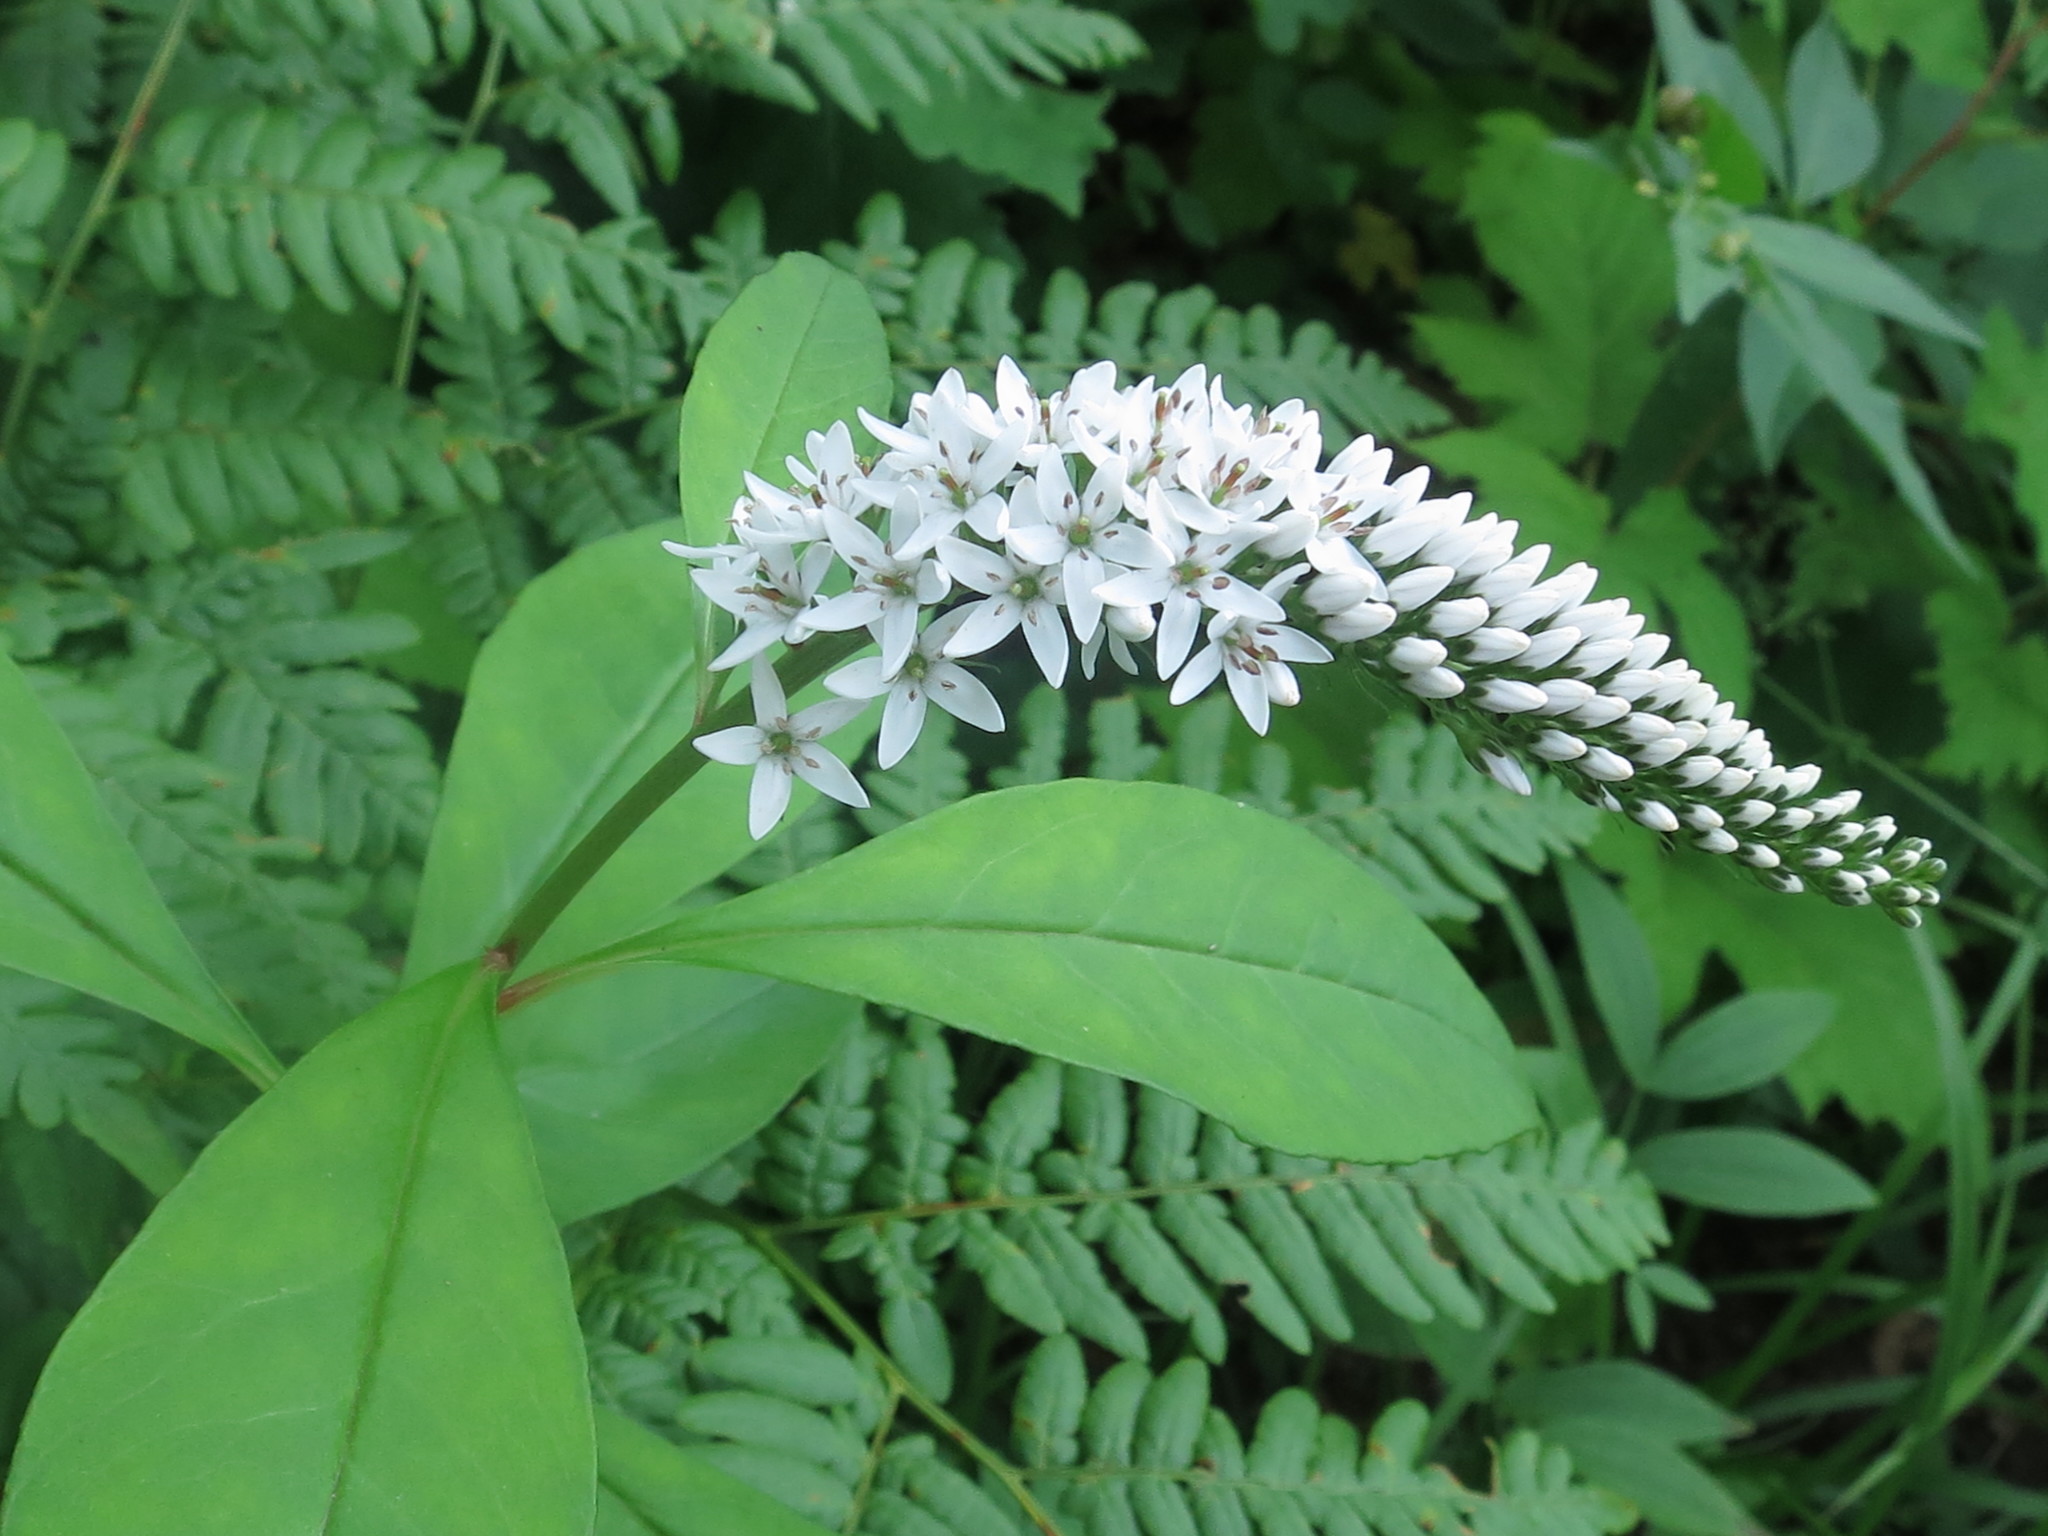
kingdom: Plantae
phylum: Tracheophyta
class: Magnoliopsida
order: Ericales
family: Primulaceae
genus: Lysimachia
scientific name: Lysimachia clethroides
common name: Gooseneck loosestrife
